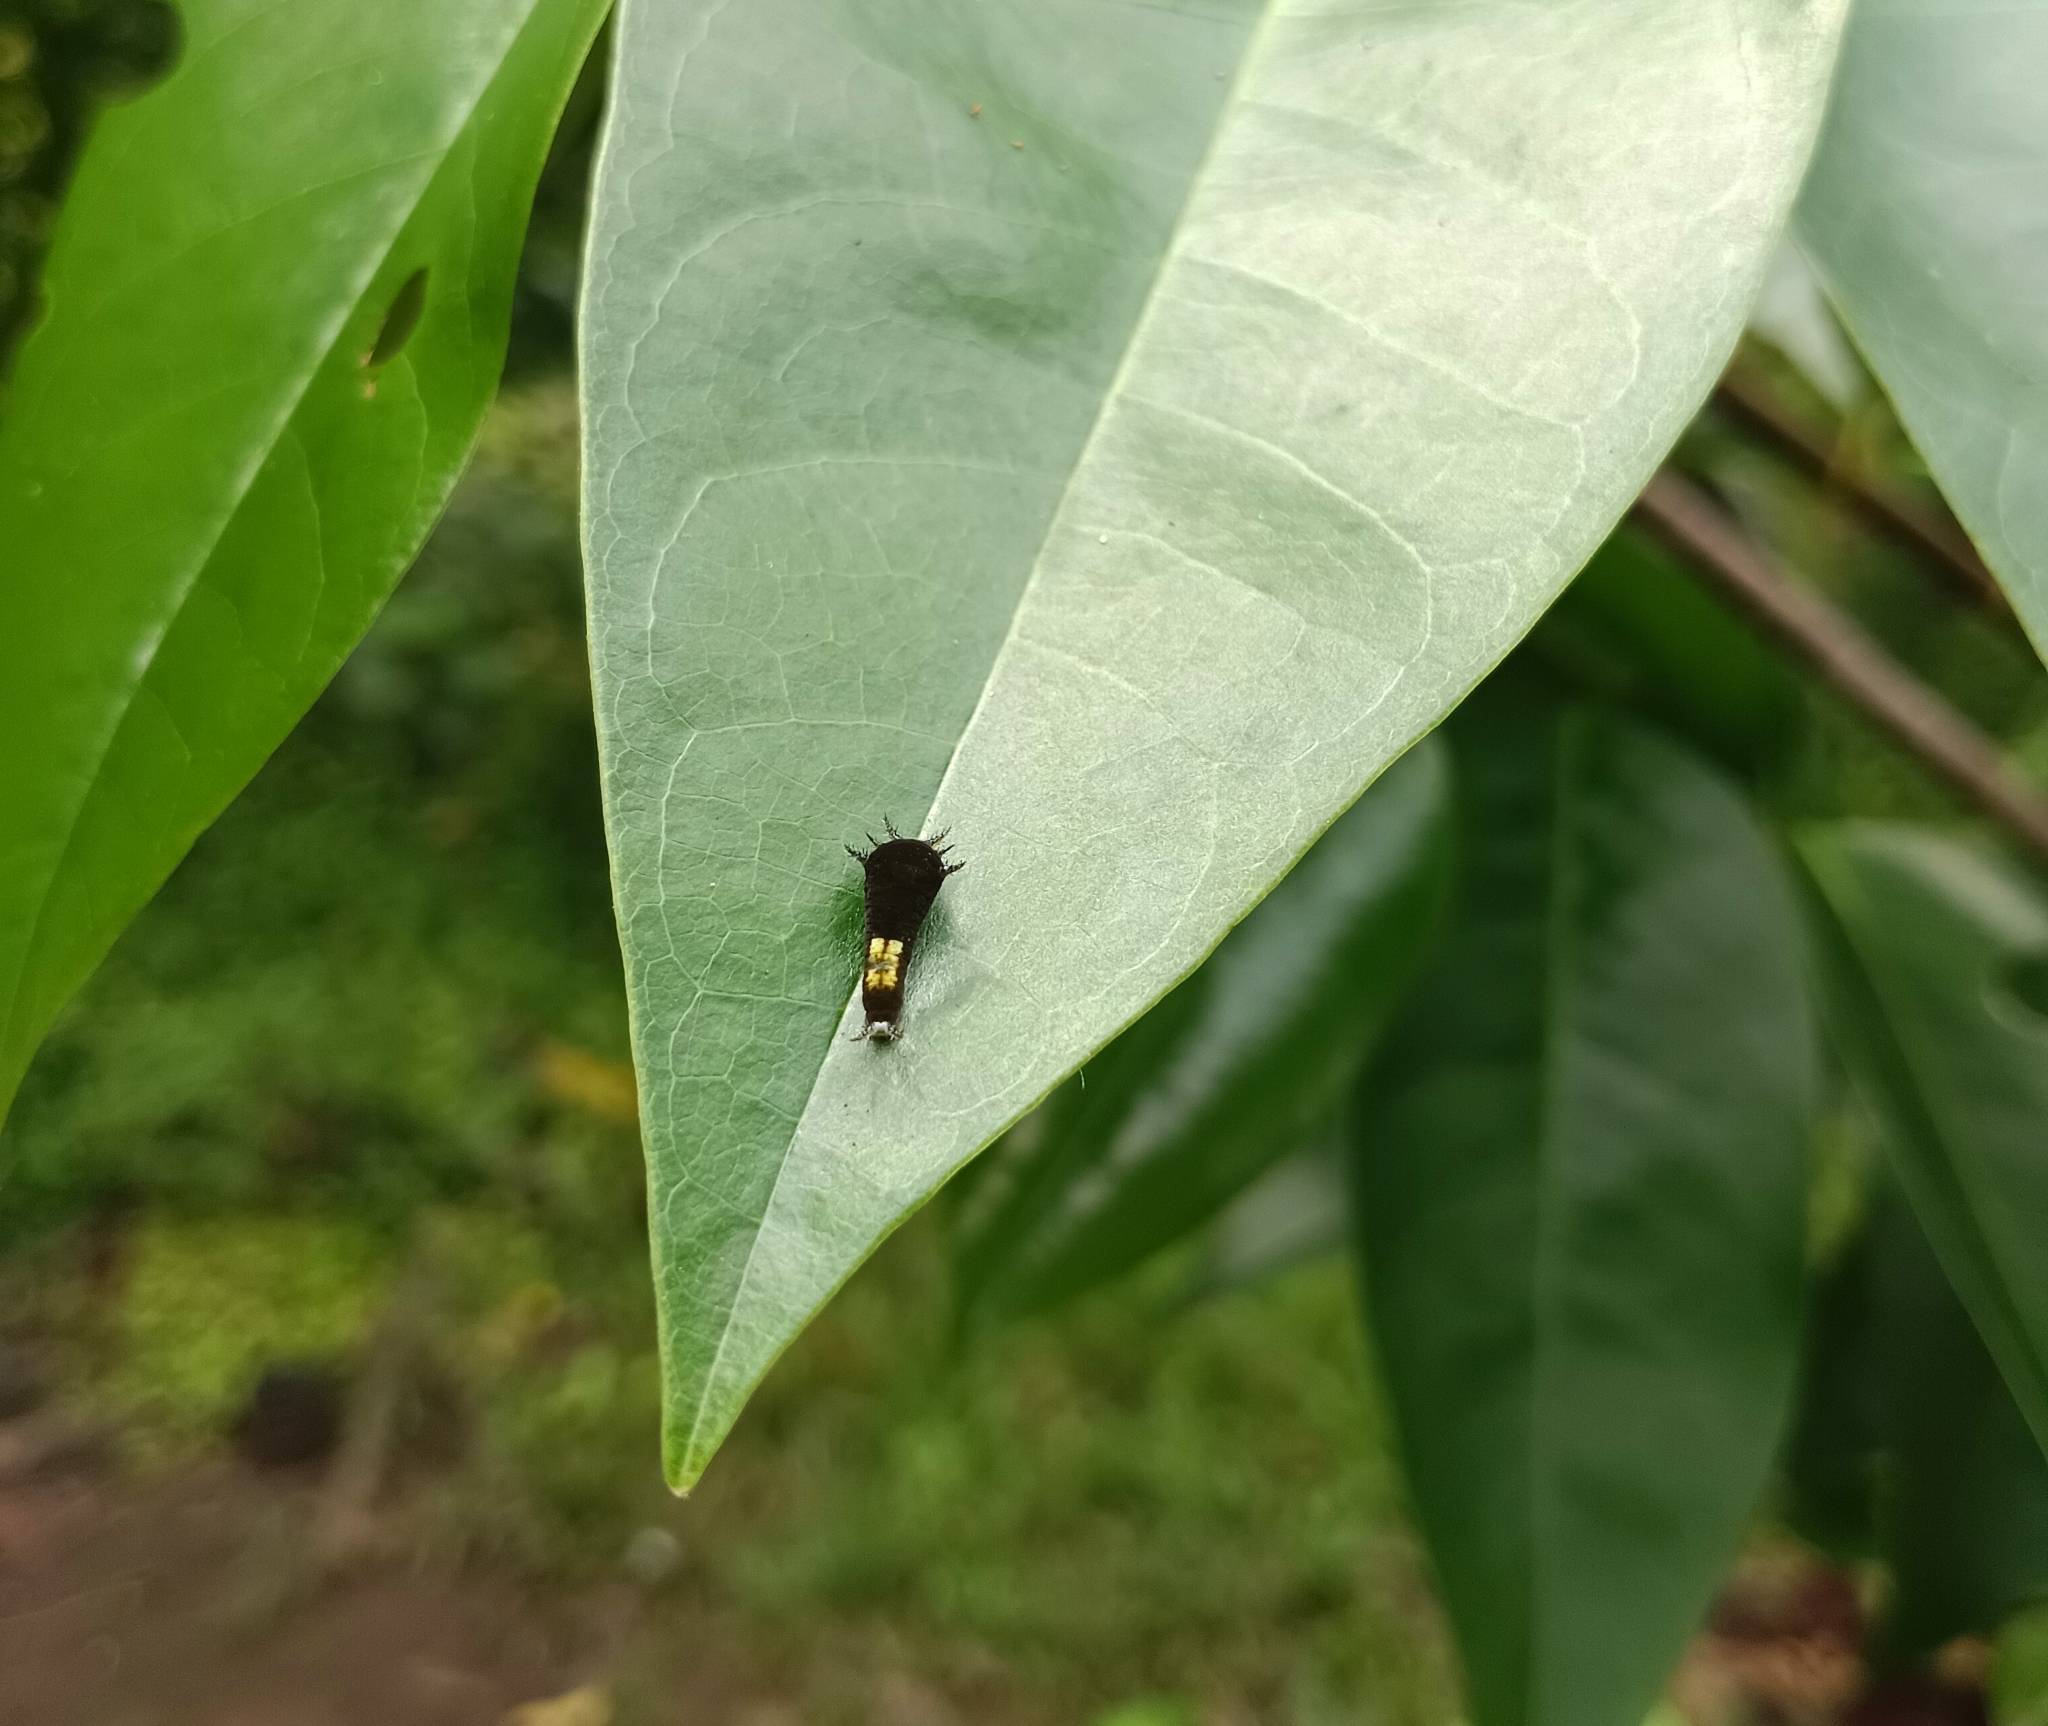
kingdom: Animalia
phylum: Arthropoda
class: Insecta
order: Lepidoptera
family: Papilionidae
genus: Graphium
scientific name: Graphium agamemnon
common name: Tailed jay
